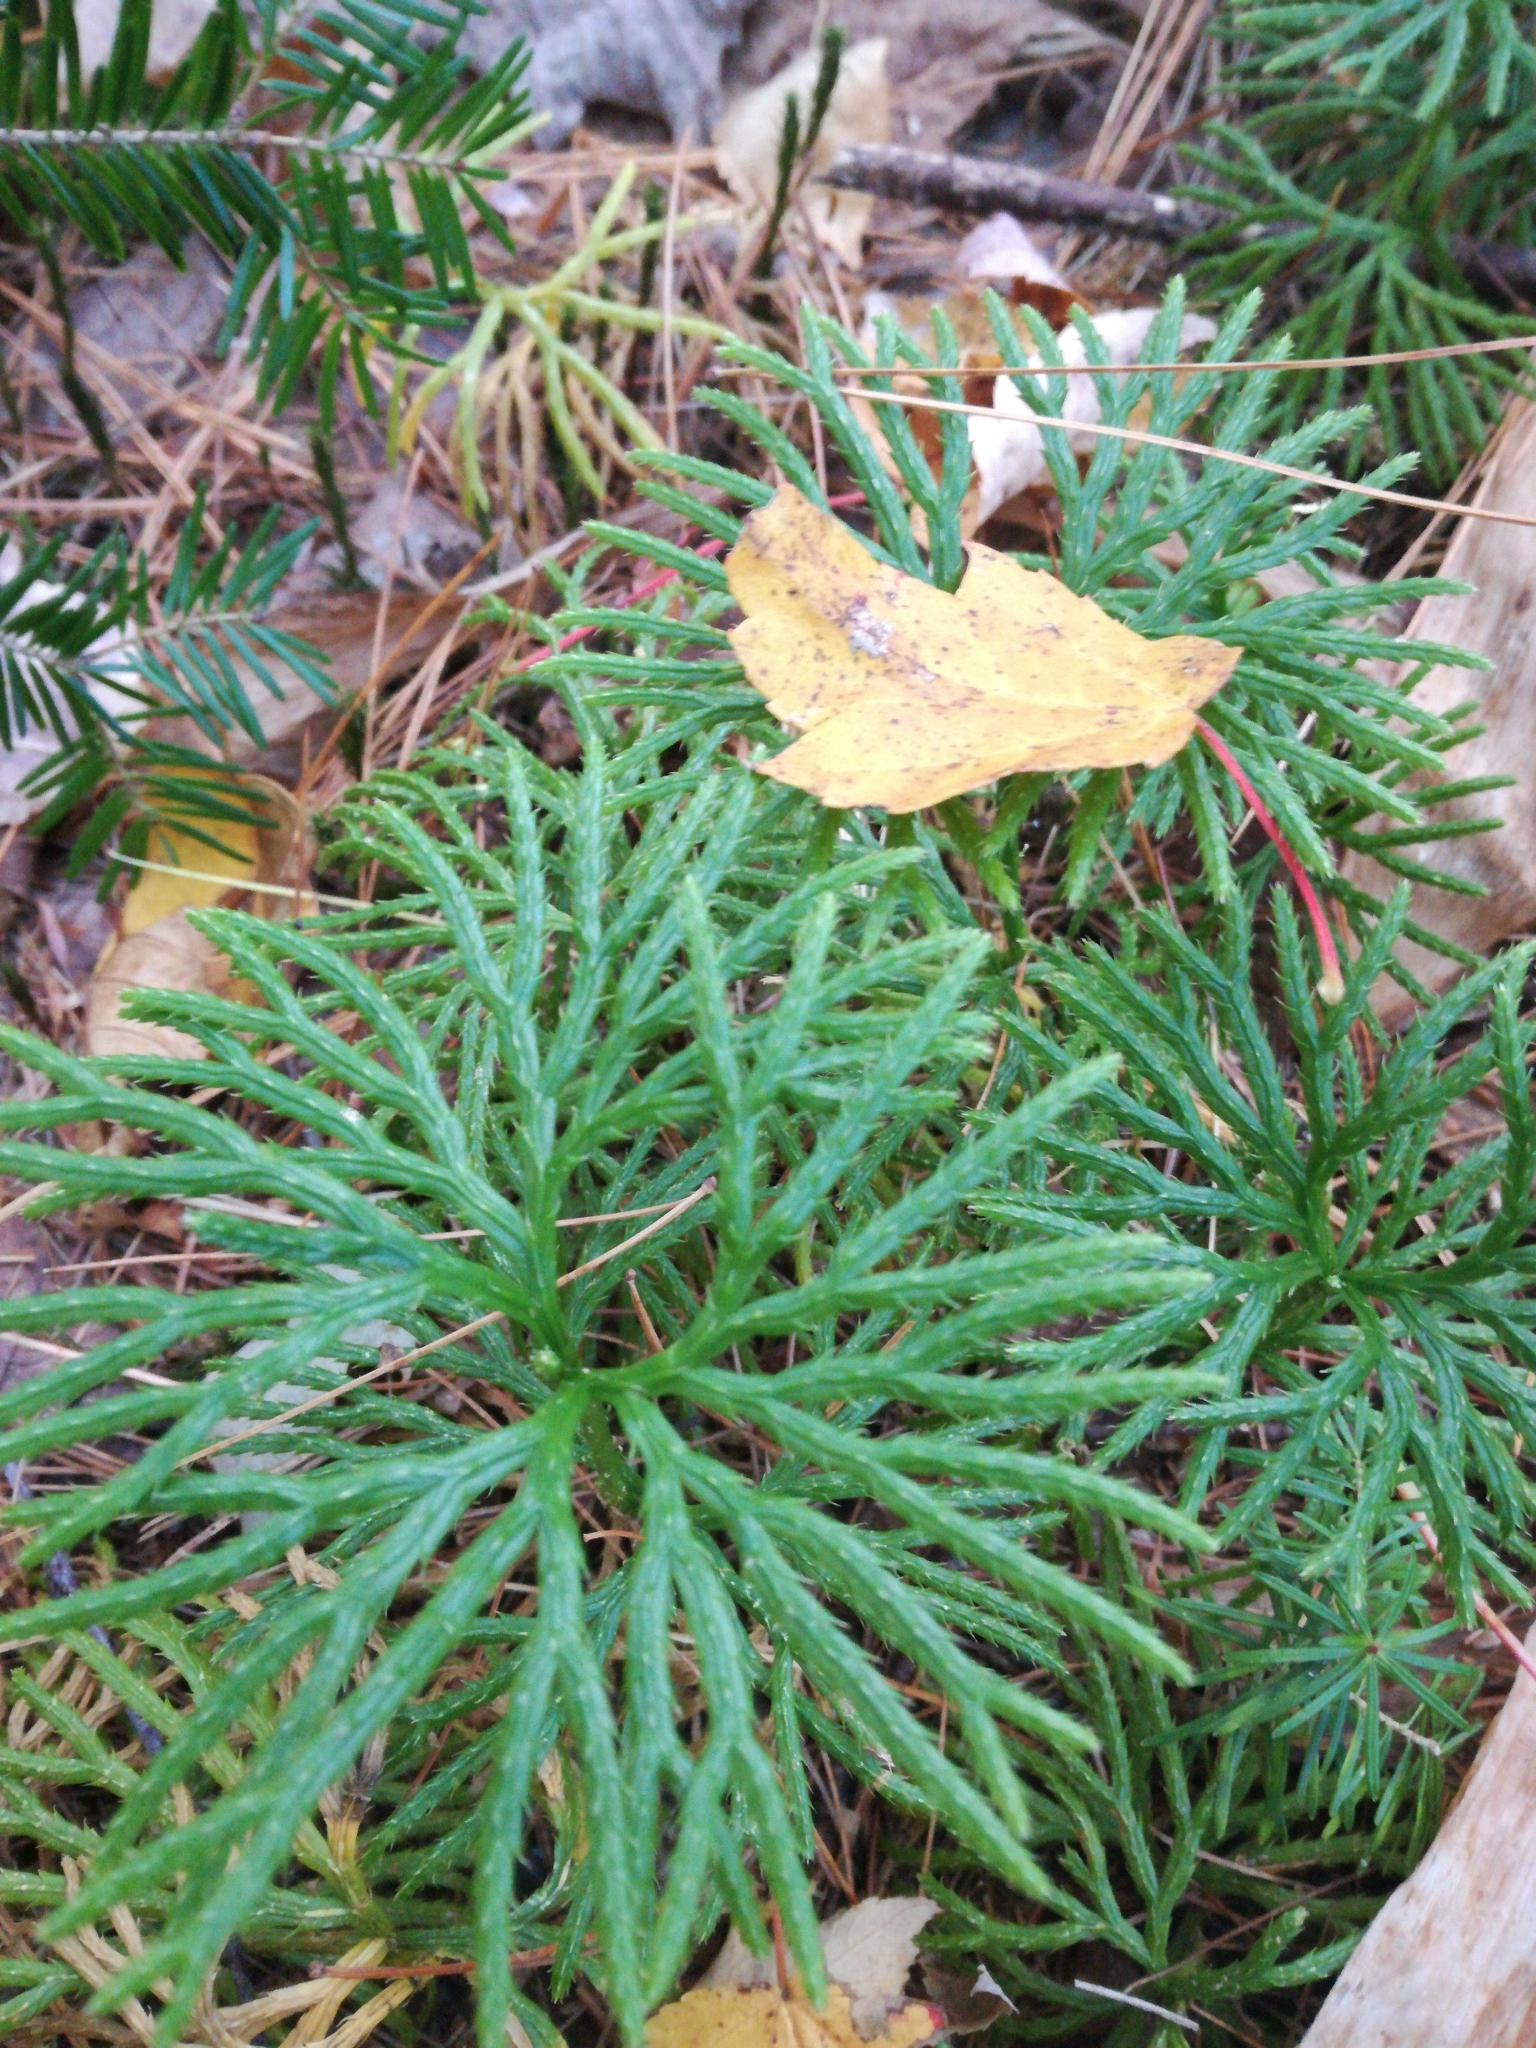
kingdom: Plantae
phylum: Tracheophyta
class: Lycopodiopsida
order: Lycopodiales
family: Lycopodiaceae
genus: Diphasiastrum
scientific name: Diphasiastrum digitatum
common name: Southern running-pine
